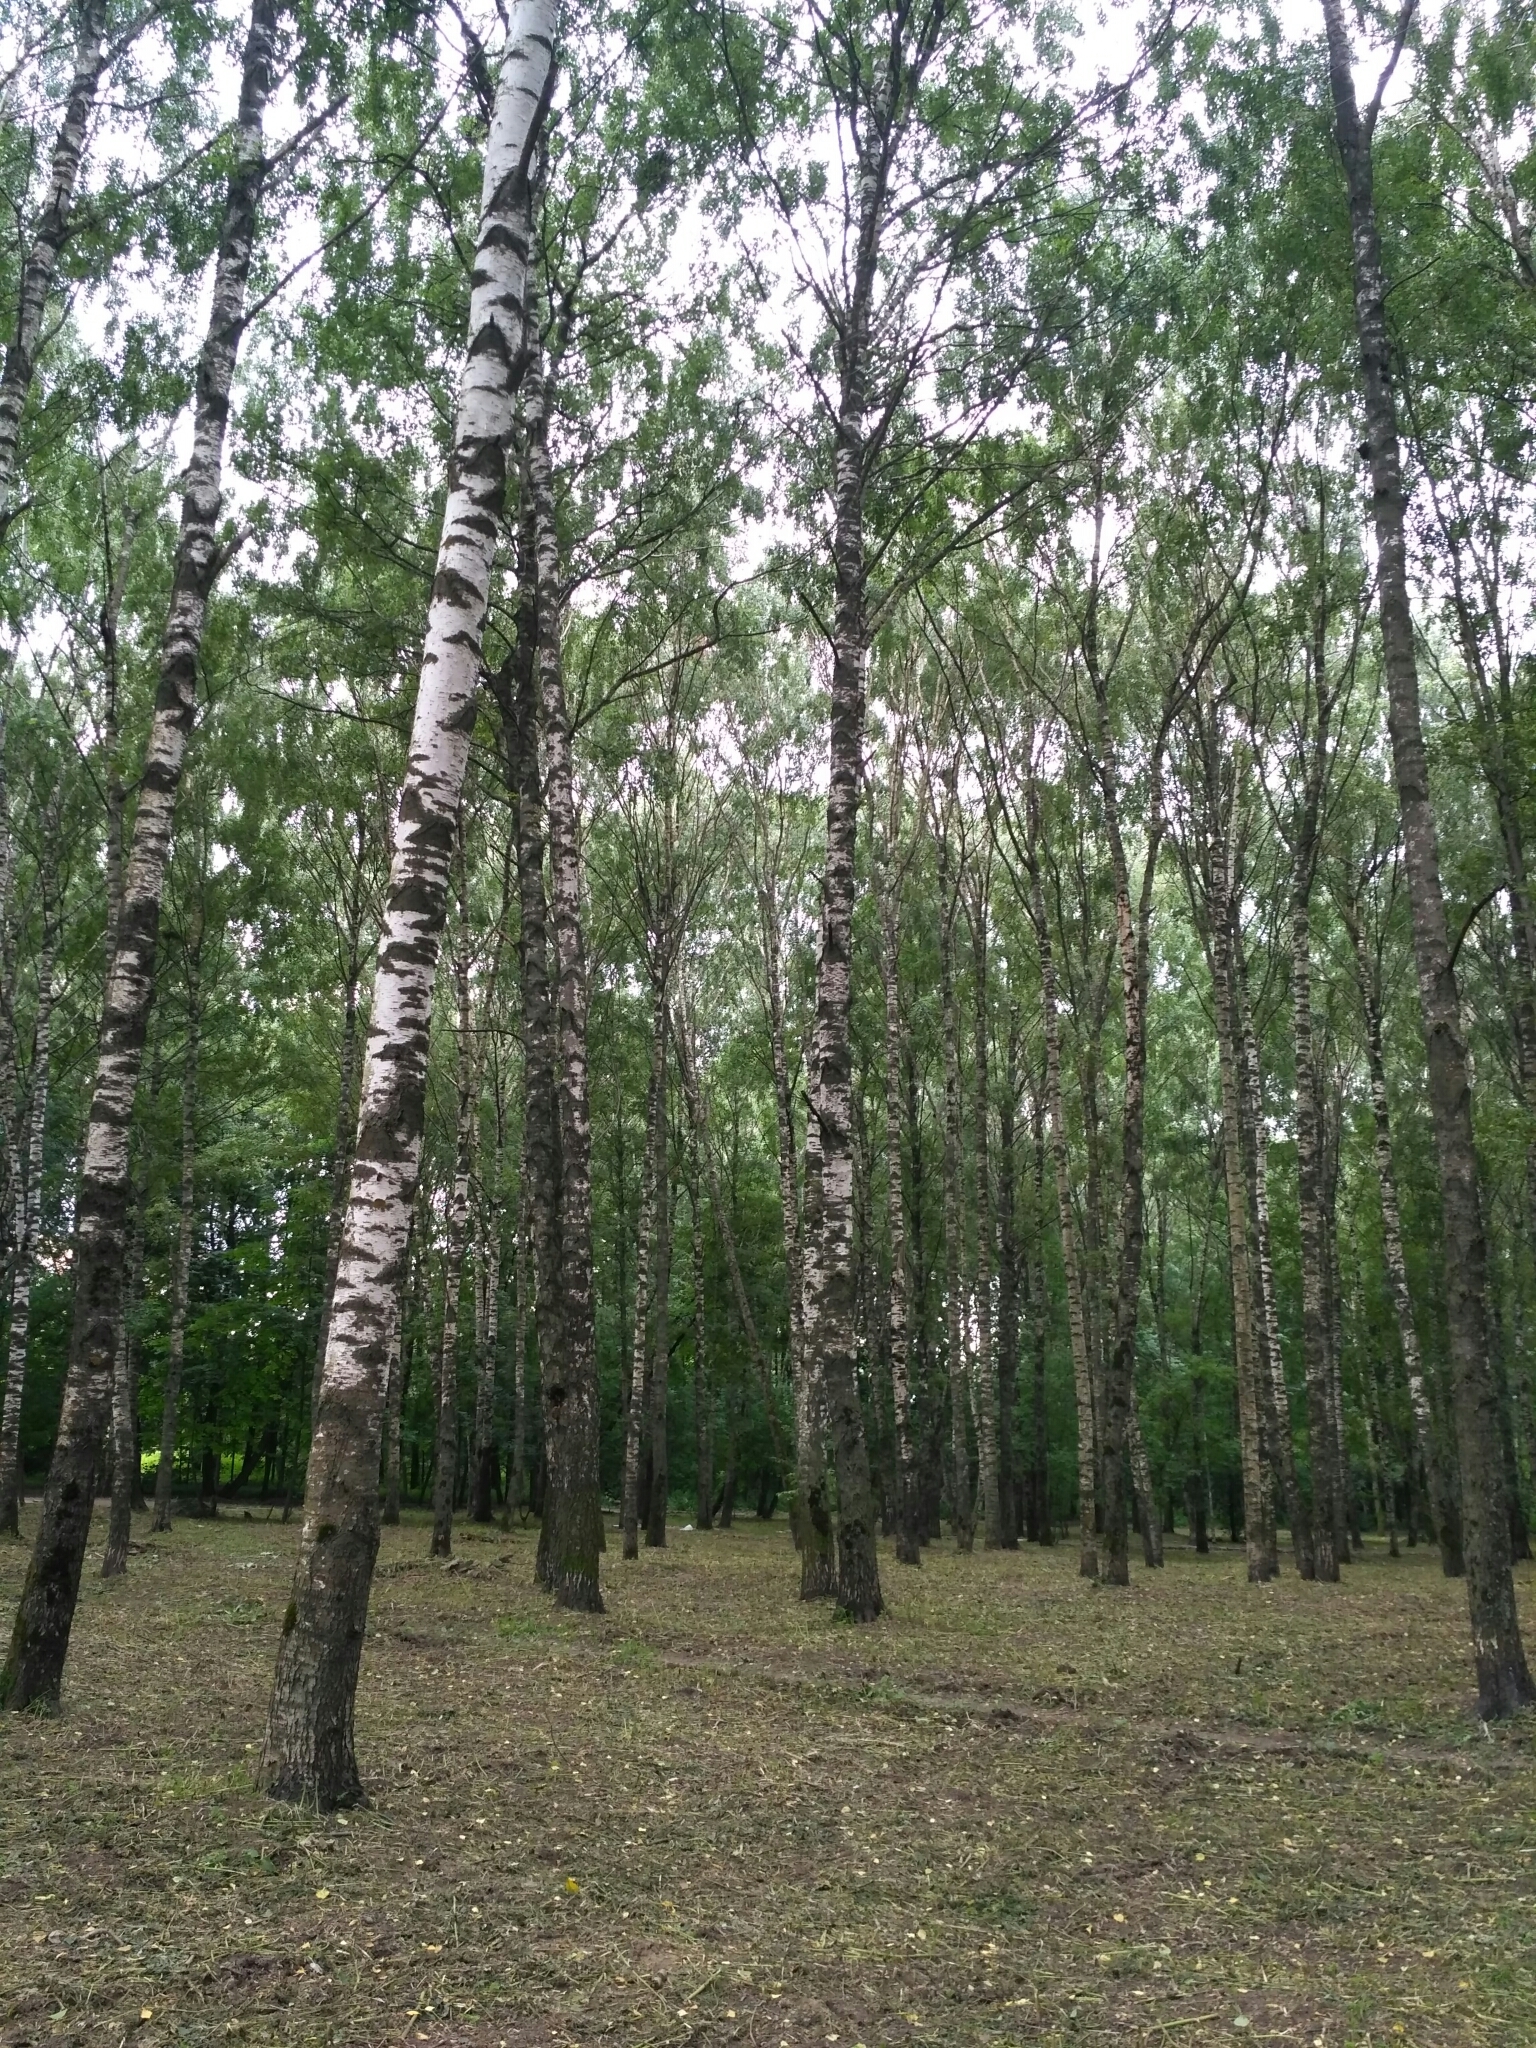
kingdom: Plantae
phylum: Tracheophyta
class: Magnoliopsida
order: Fagales
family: Betulaceae
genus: Betula
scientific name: Betula pendula
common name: Silver birch
